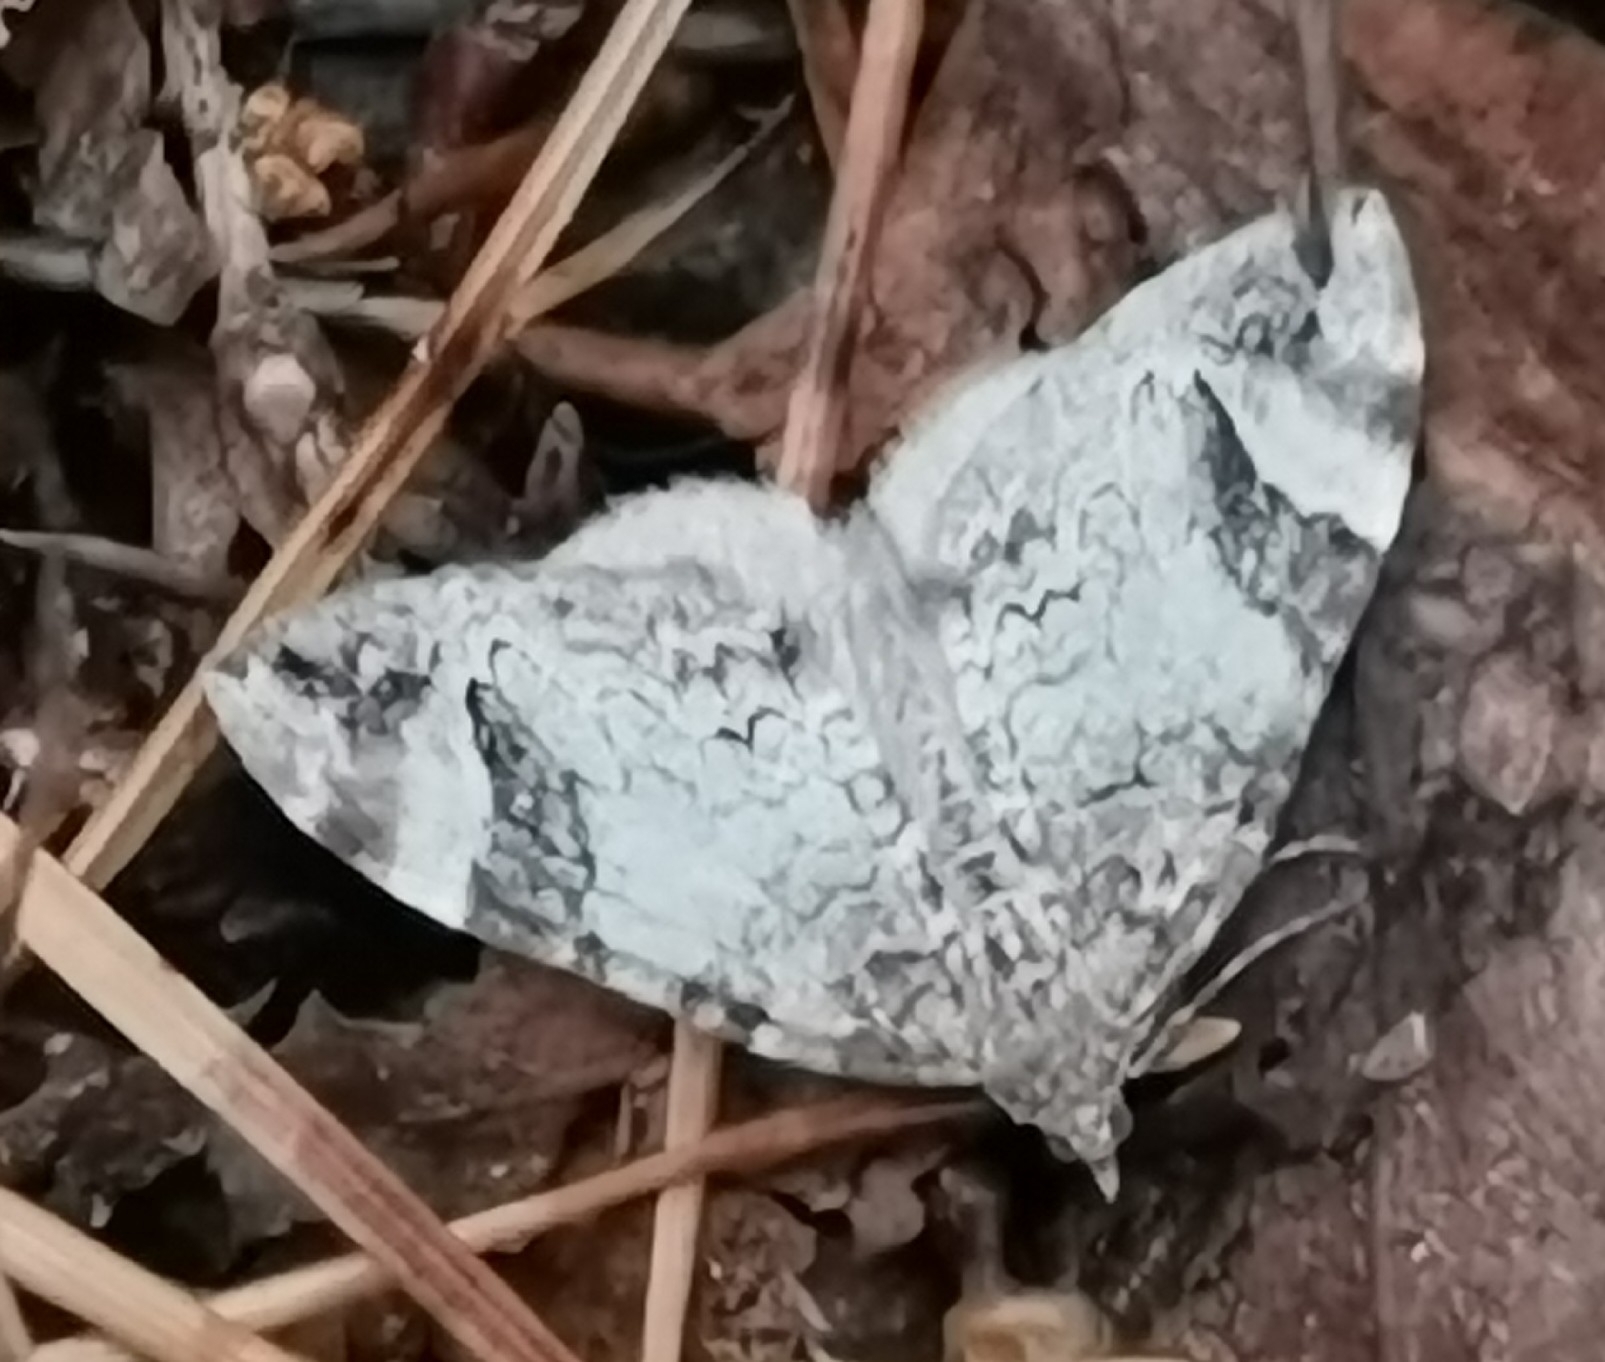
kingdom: Animalia
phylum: Arthropoda
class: Insecta
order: Lepidoptera
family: Geometridae
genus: Dysstroma
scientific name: Dysstroma citrata
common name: Dark marbled carpet
